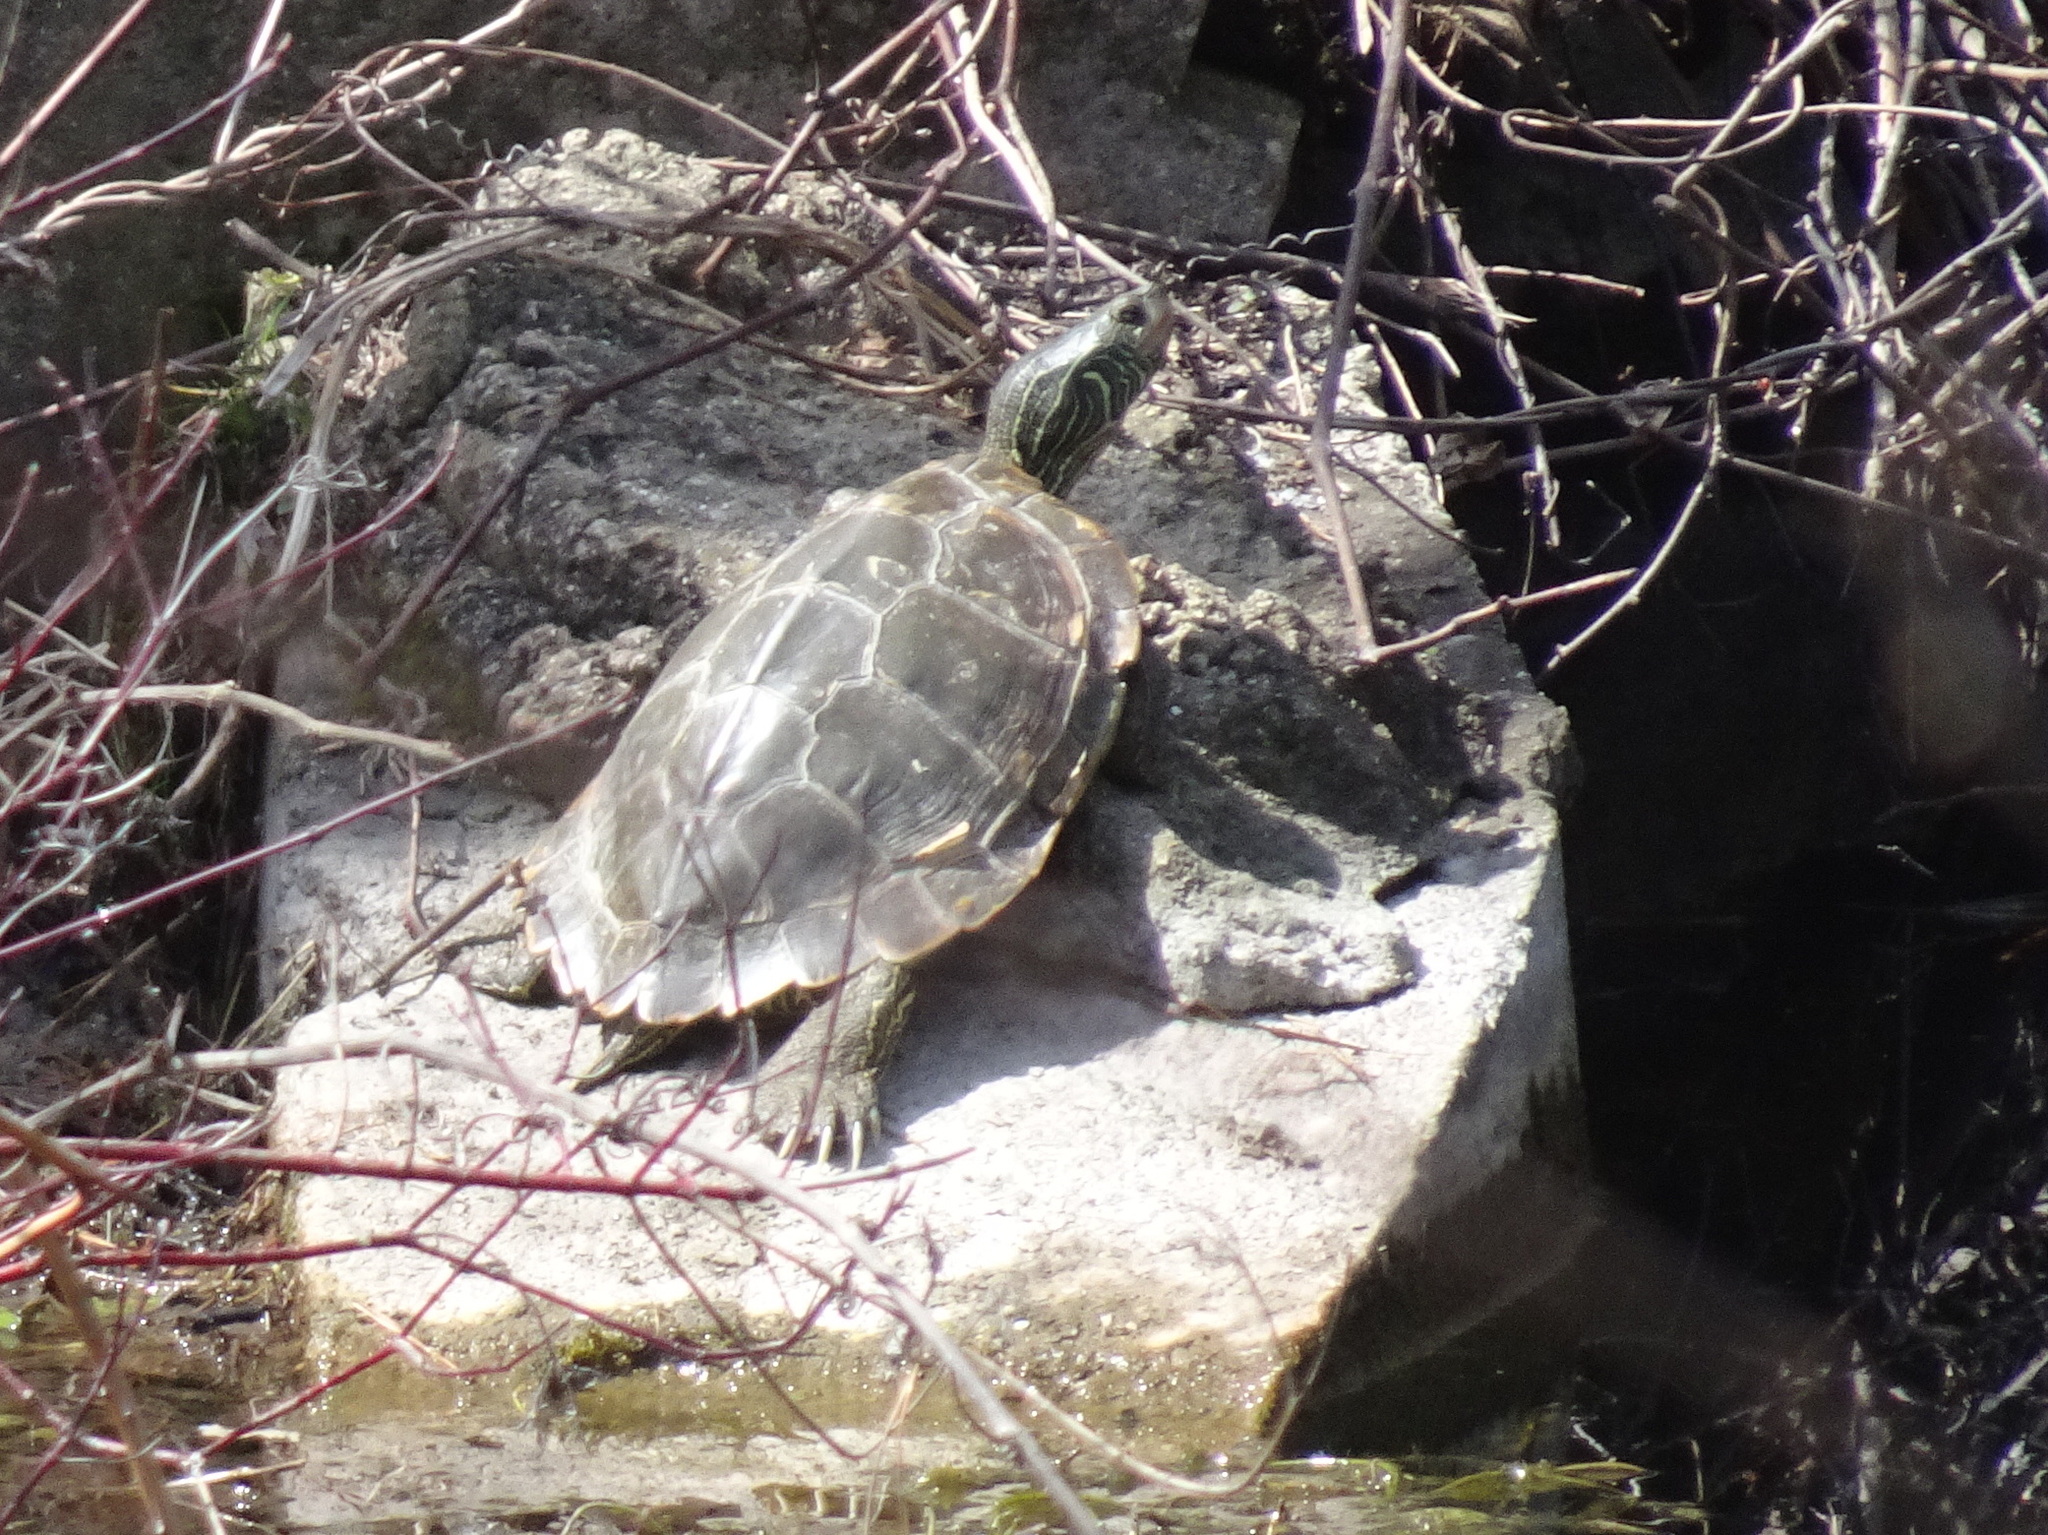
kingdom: Animalia
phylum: Chordata
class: Testudines
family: Emydidae
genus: Graptemys
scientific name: Graptemys geographica
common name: Common map turtle
